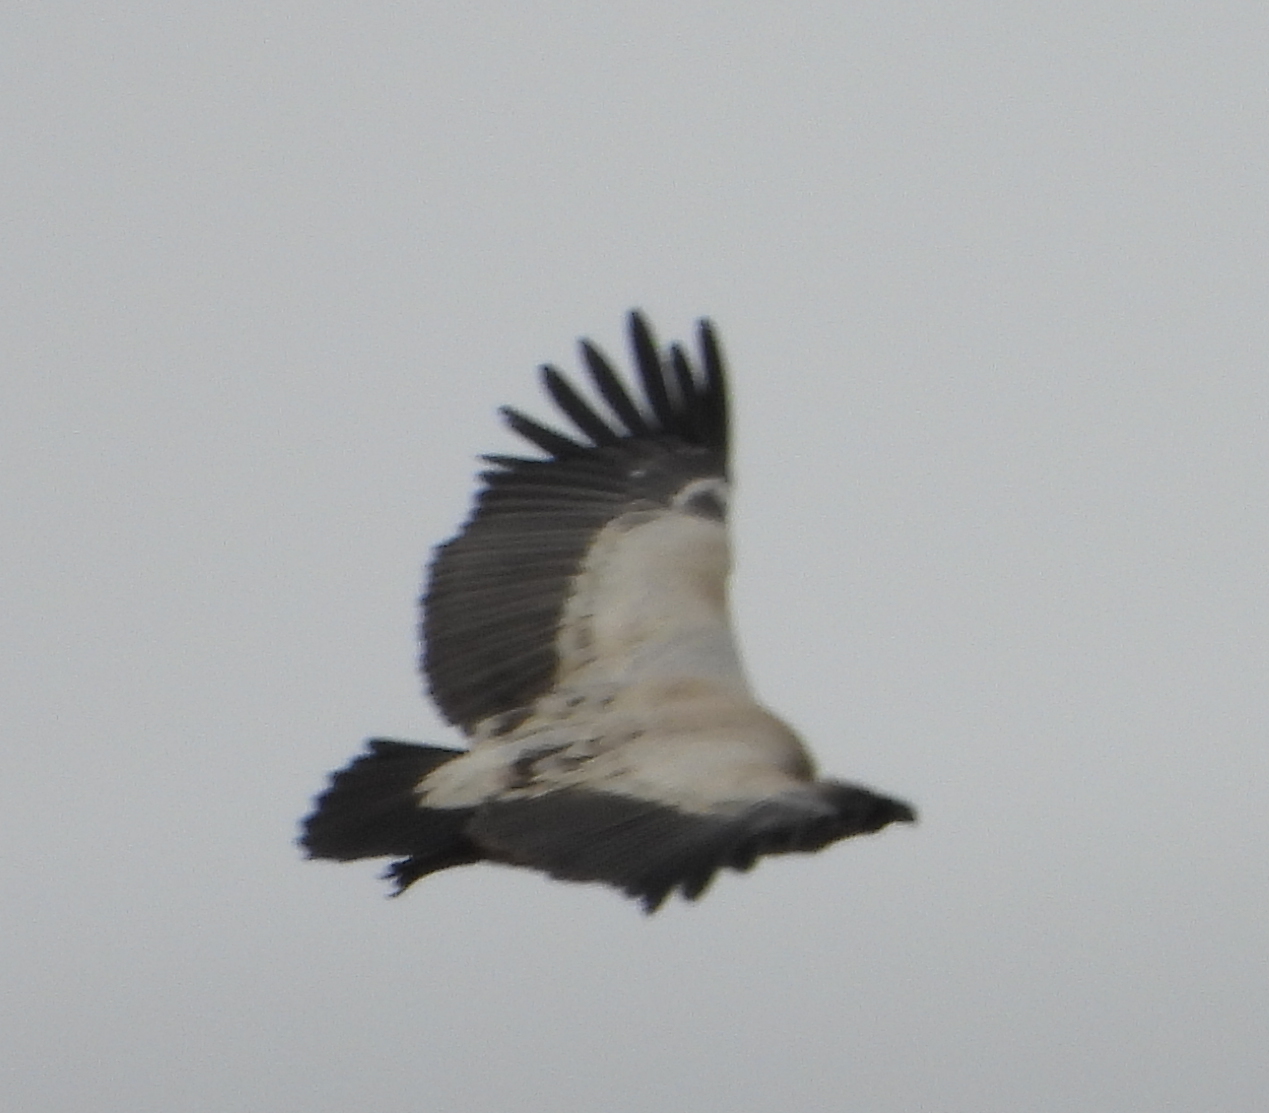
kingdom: Animalia
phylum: Chordata
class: Aves
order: Accipitriformes
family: Accipitridae
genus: Gyps
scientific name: Gyps coprotheres
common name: Cape vulture
